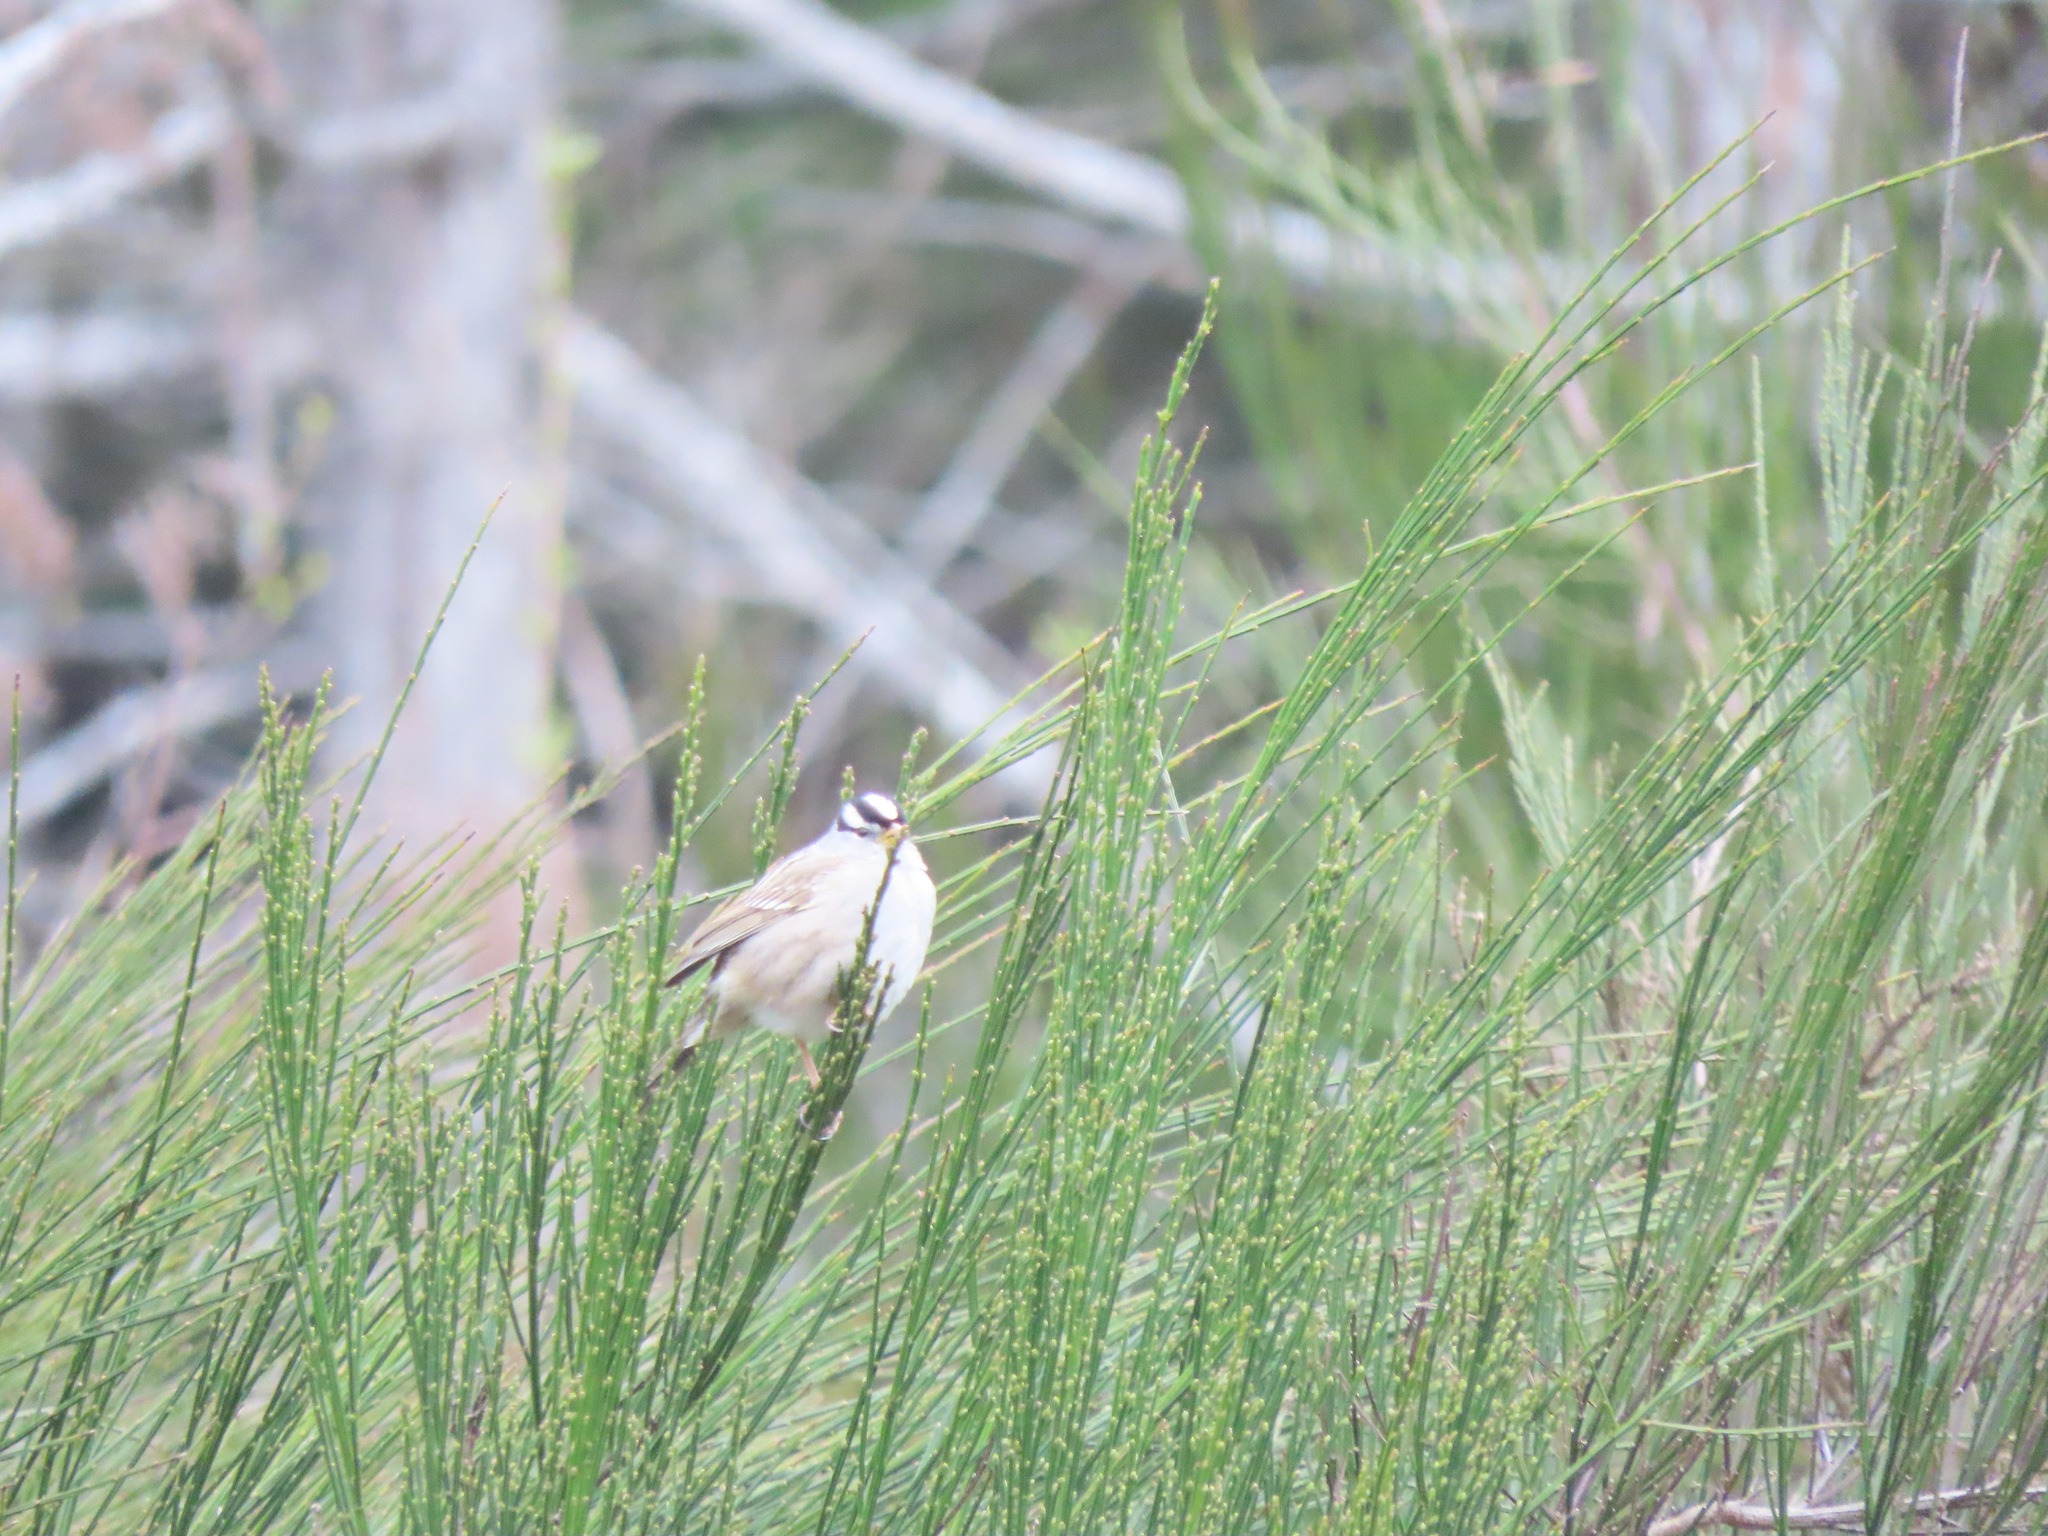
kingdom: Animalia
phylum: Chordata
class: Aves
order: Passeriformes
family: Passerellidae
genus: Zonotrichia
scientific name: Zonotrichia leucophrys
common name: White-crowned sparrow
